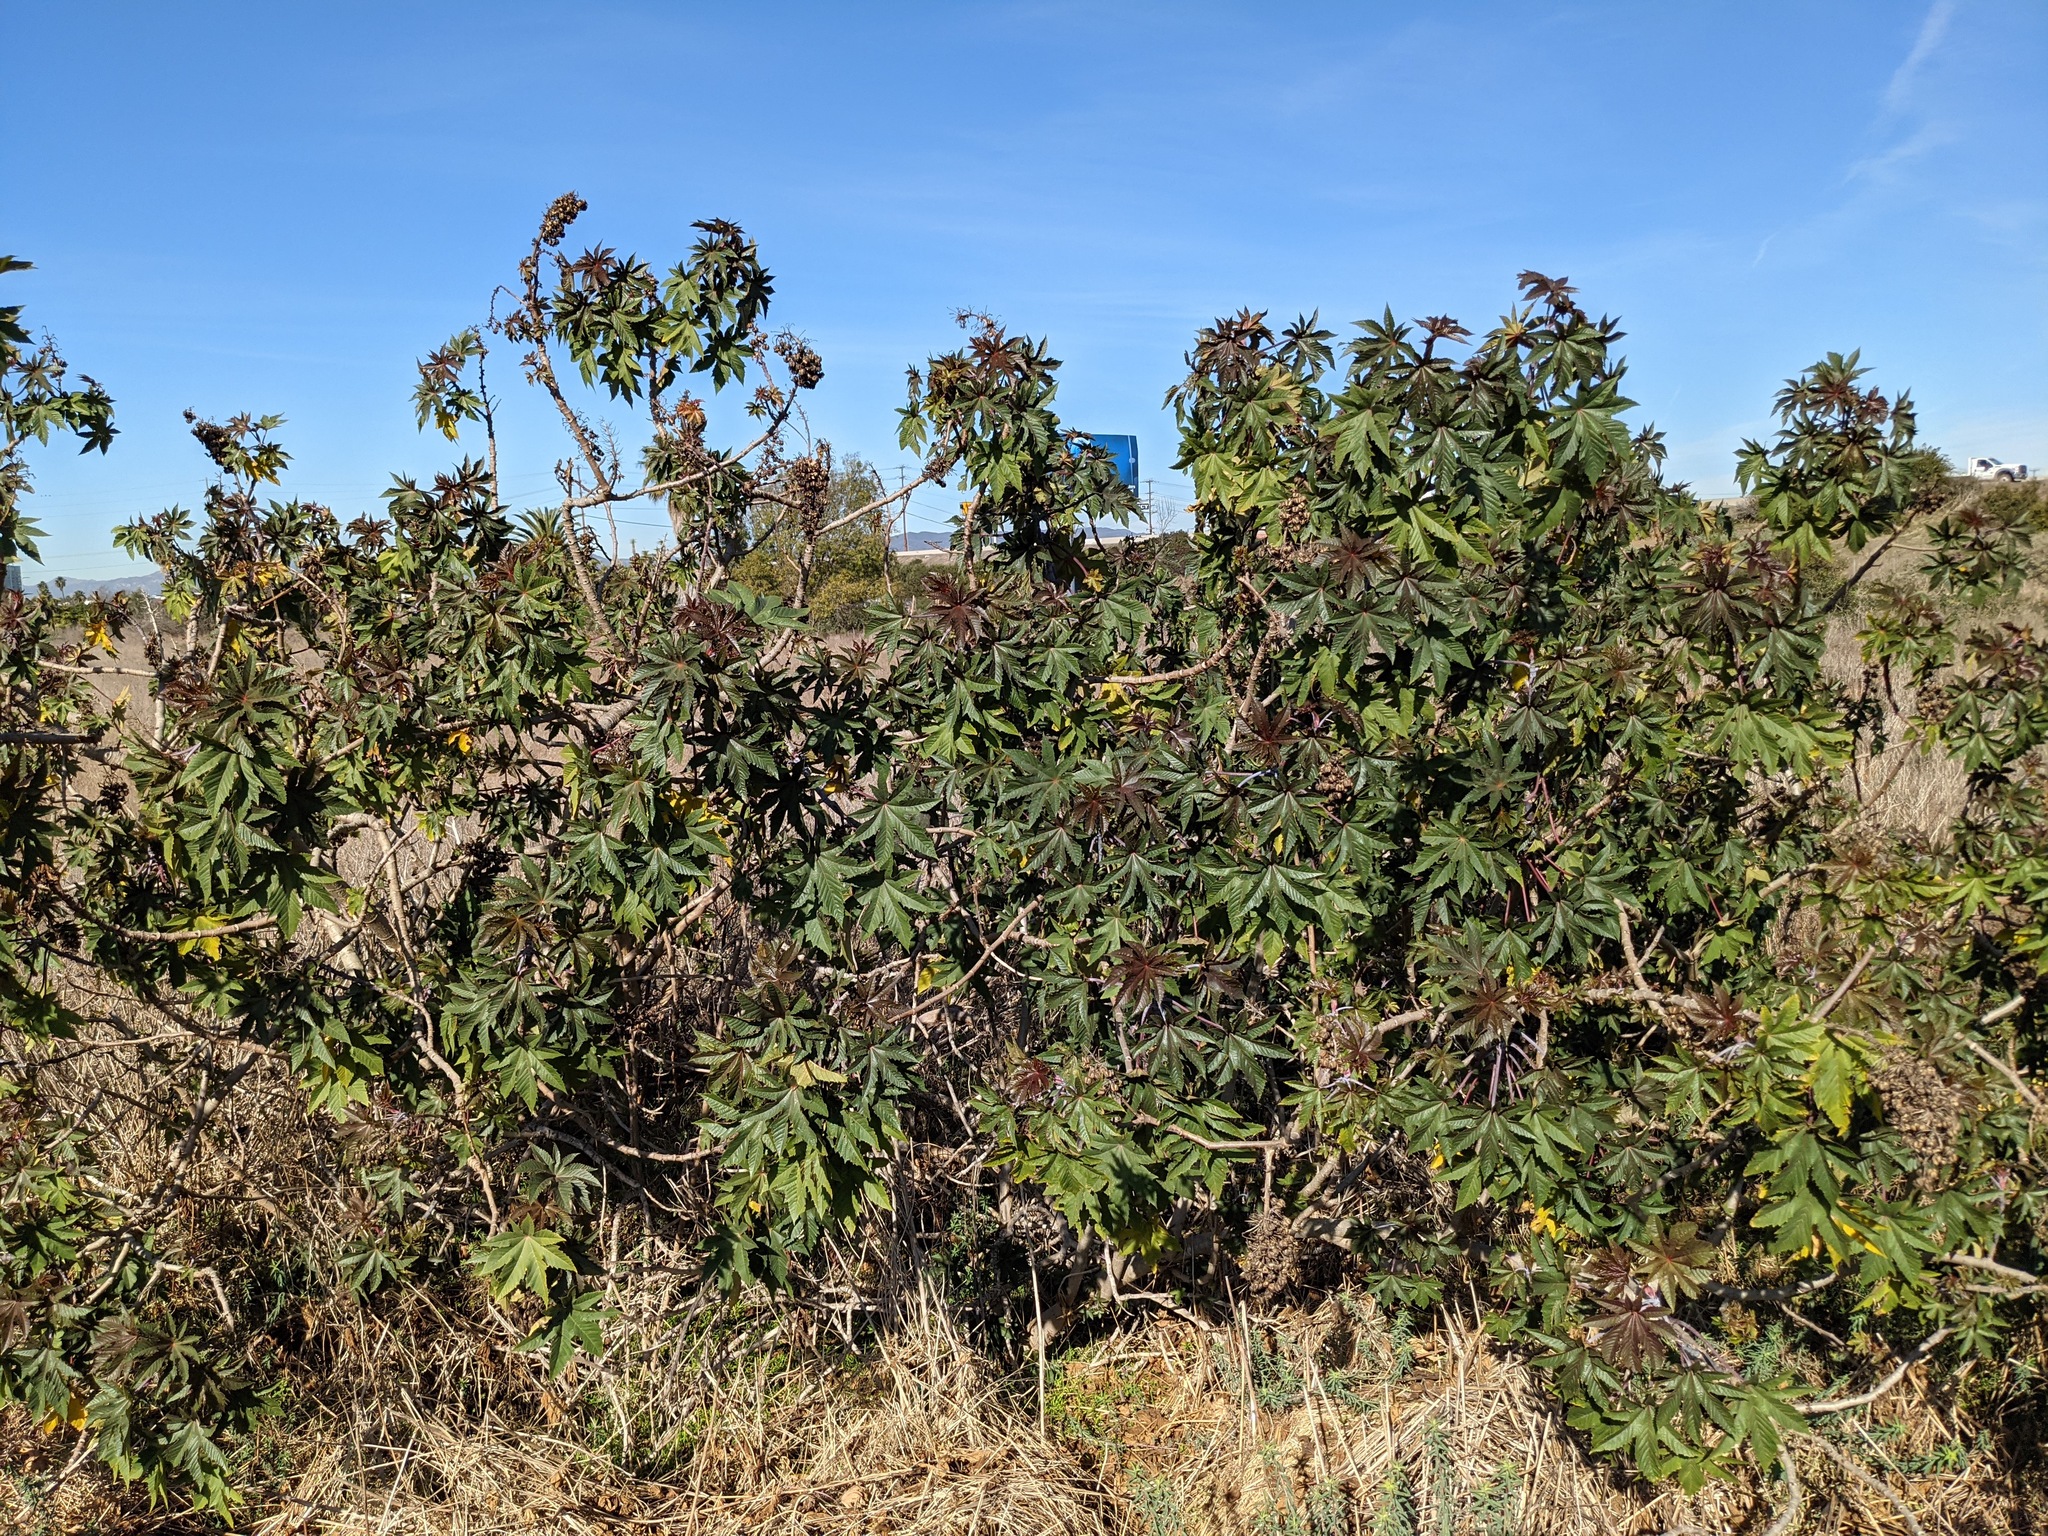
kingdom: Plantae
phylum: Tracheophyta
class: Magnoliopsida
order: Malpighiales
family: Euphorbiaceae
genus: Ricinus
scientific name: Ricinus communis
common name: Castor-oil-plant
